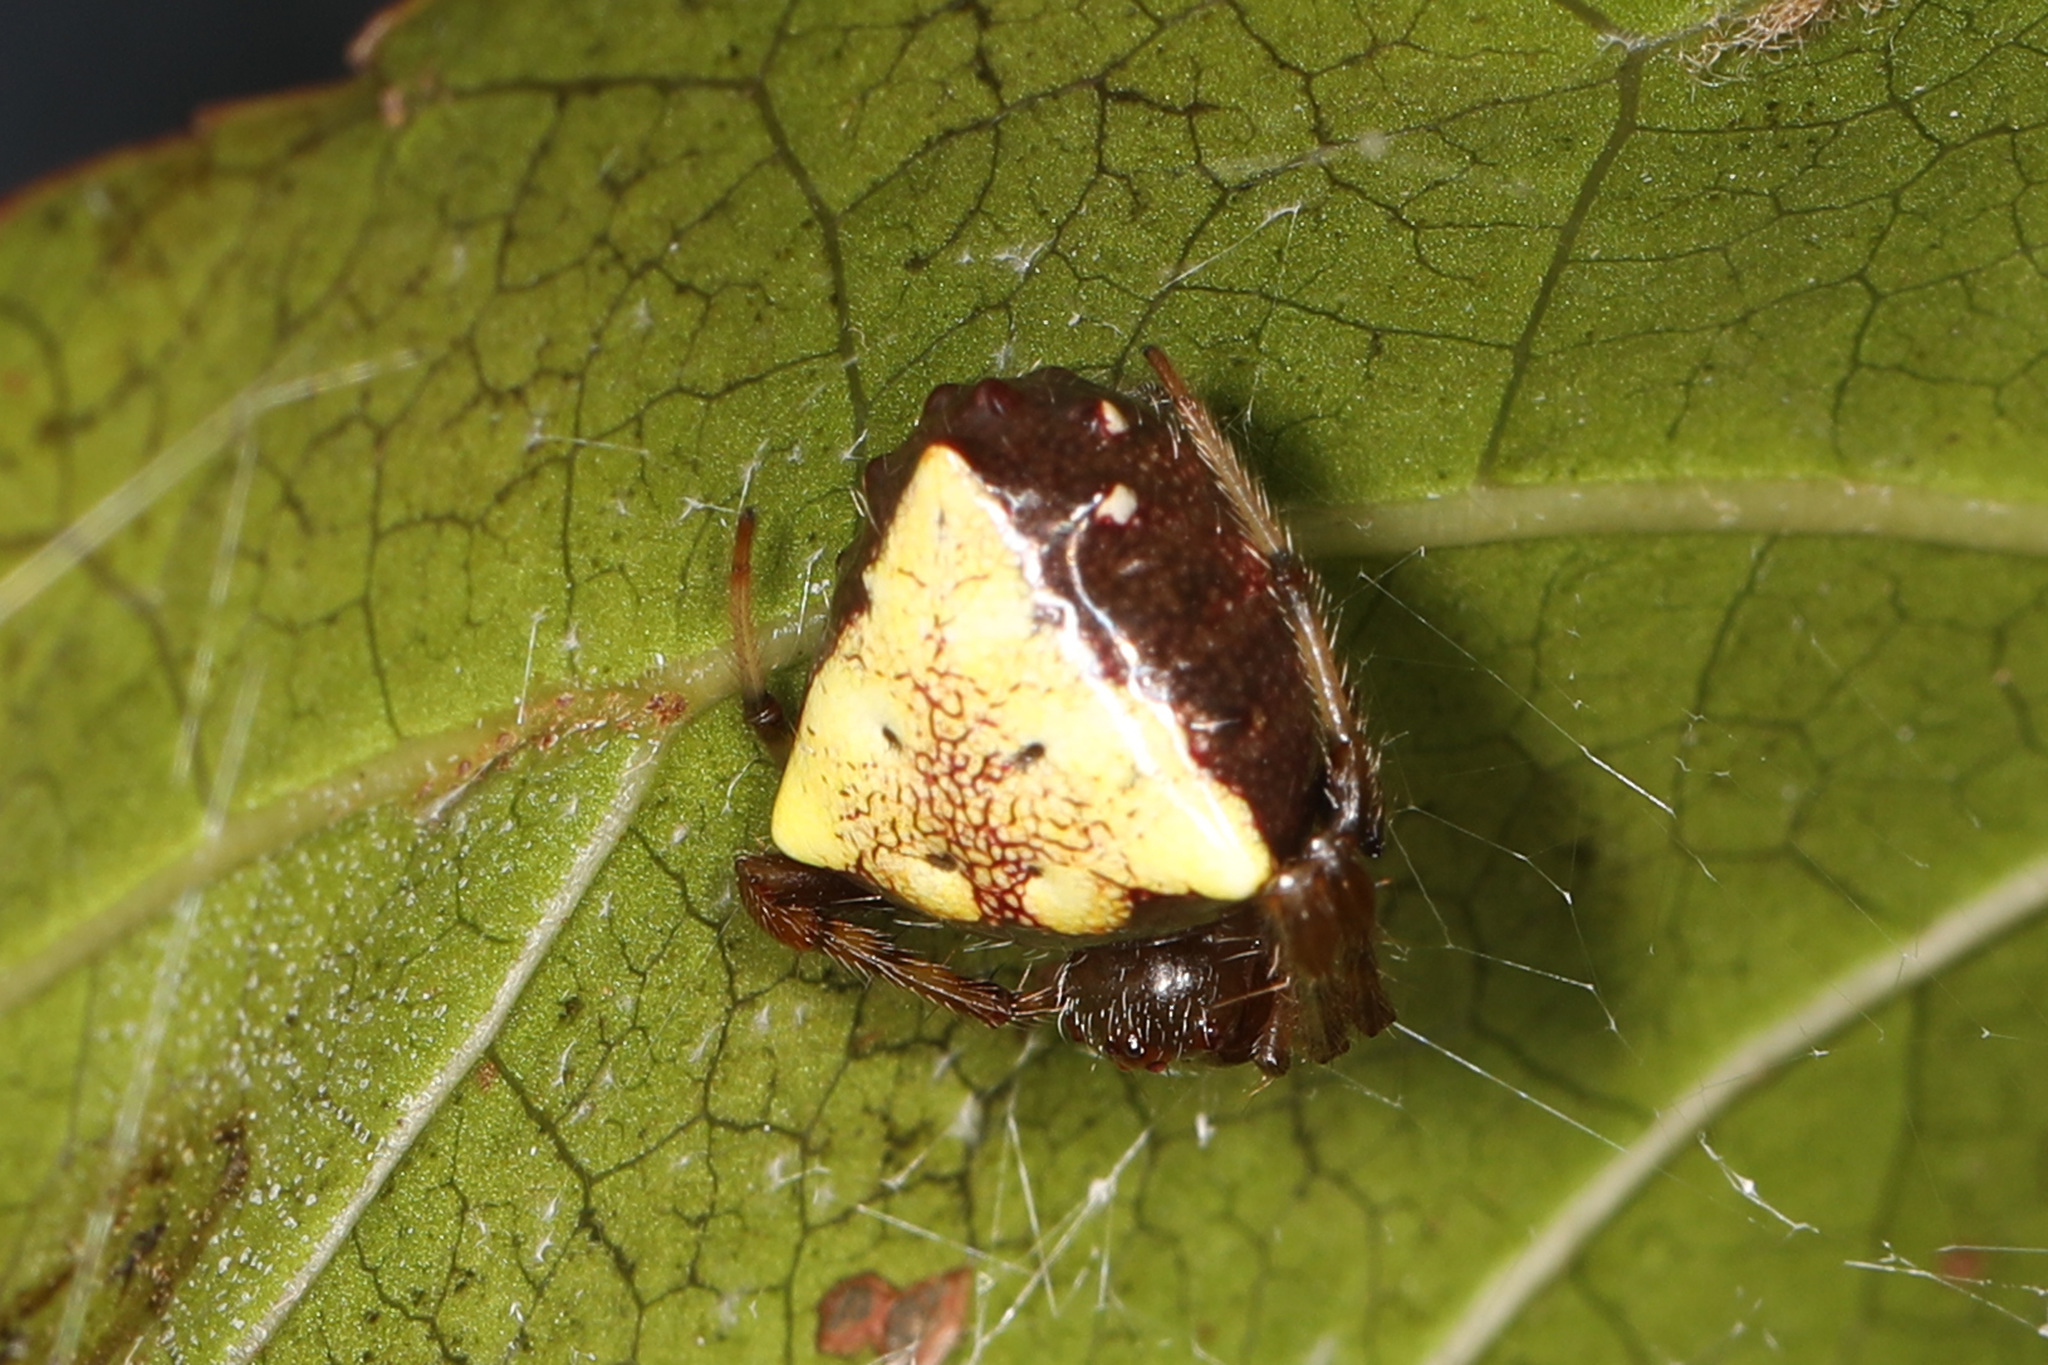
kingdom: Animalia
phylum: Arthropoda
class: Arachnida
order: Araneae
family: Araneidae
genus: Verrucosa
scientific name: Verrucosa arenata
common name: Orb weavers
